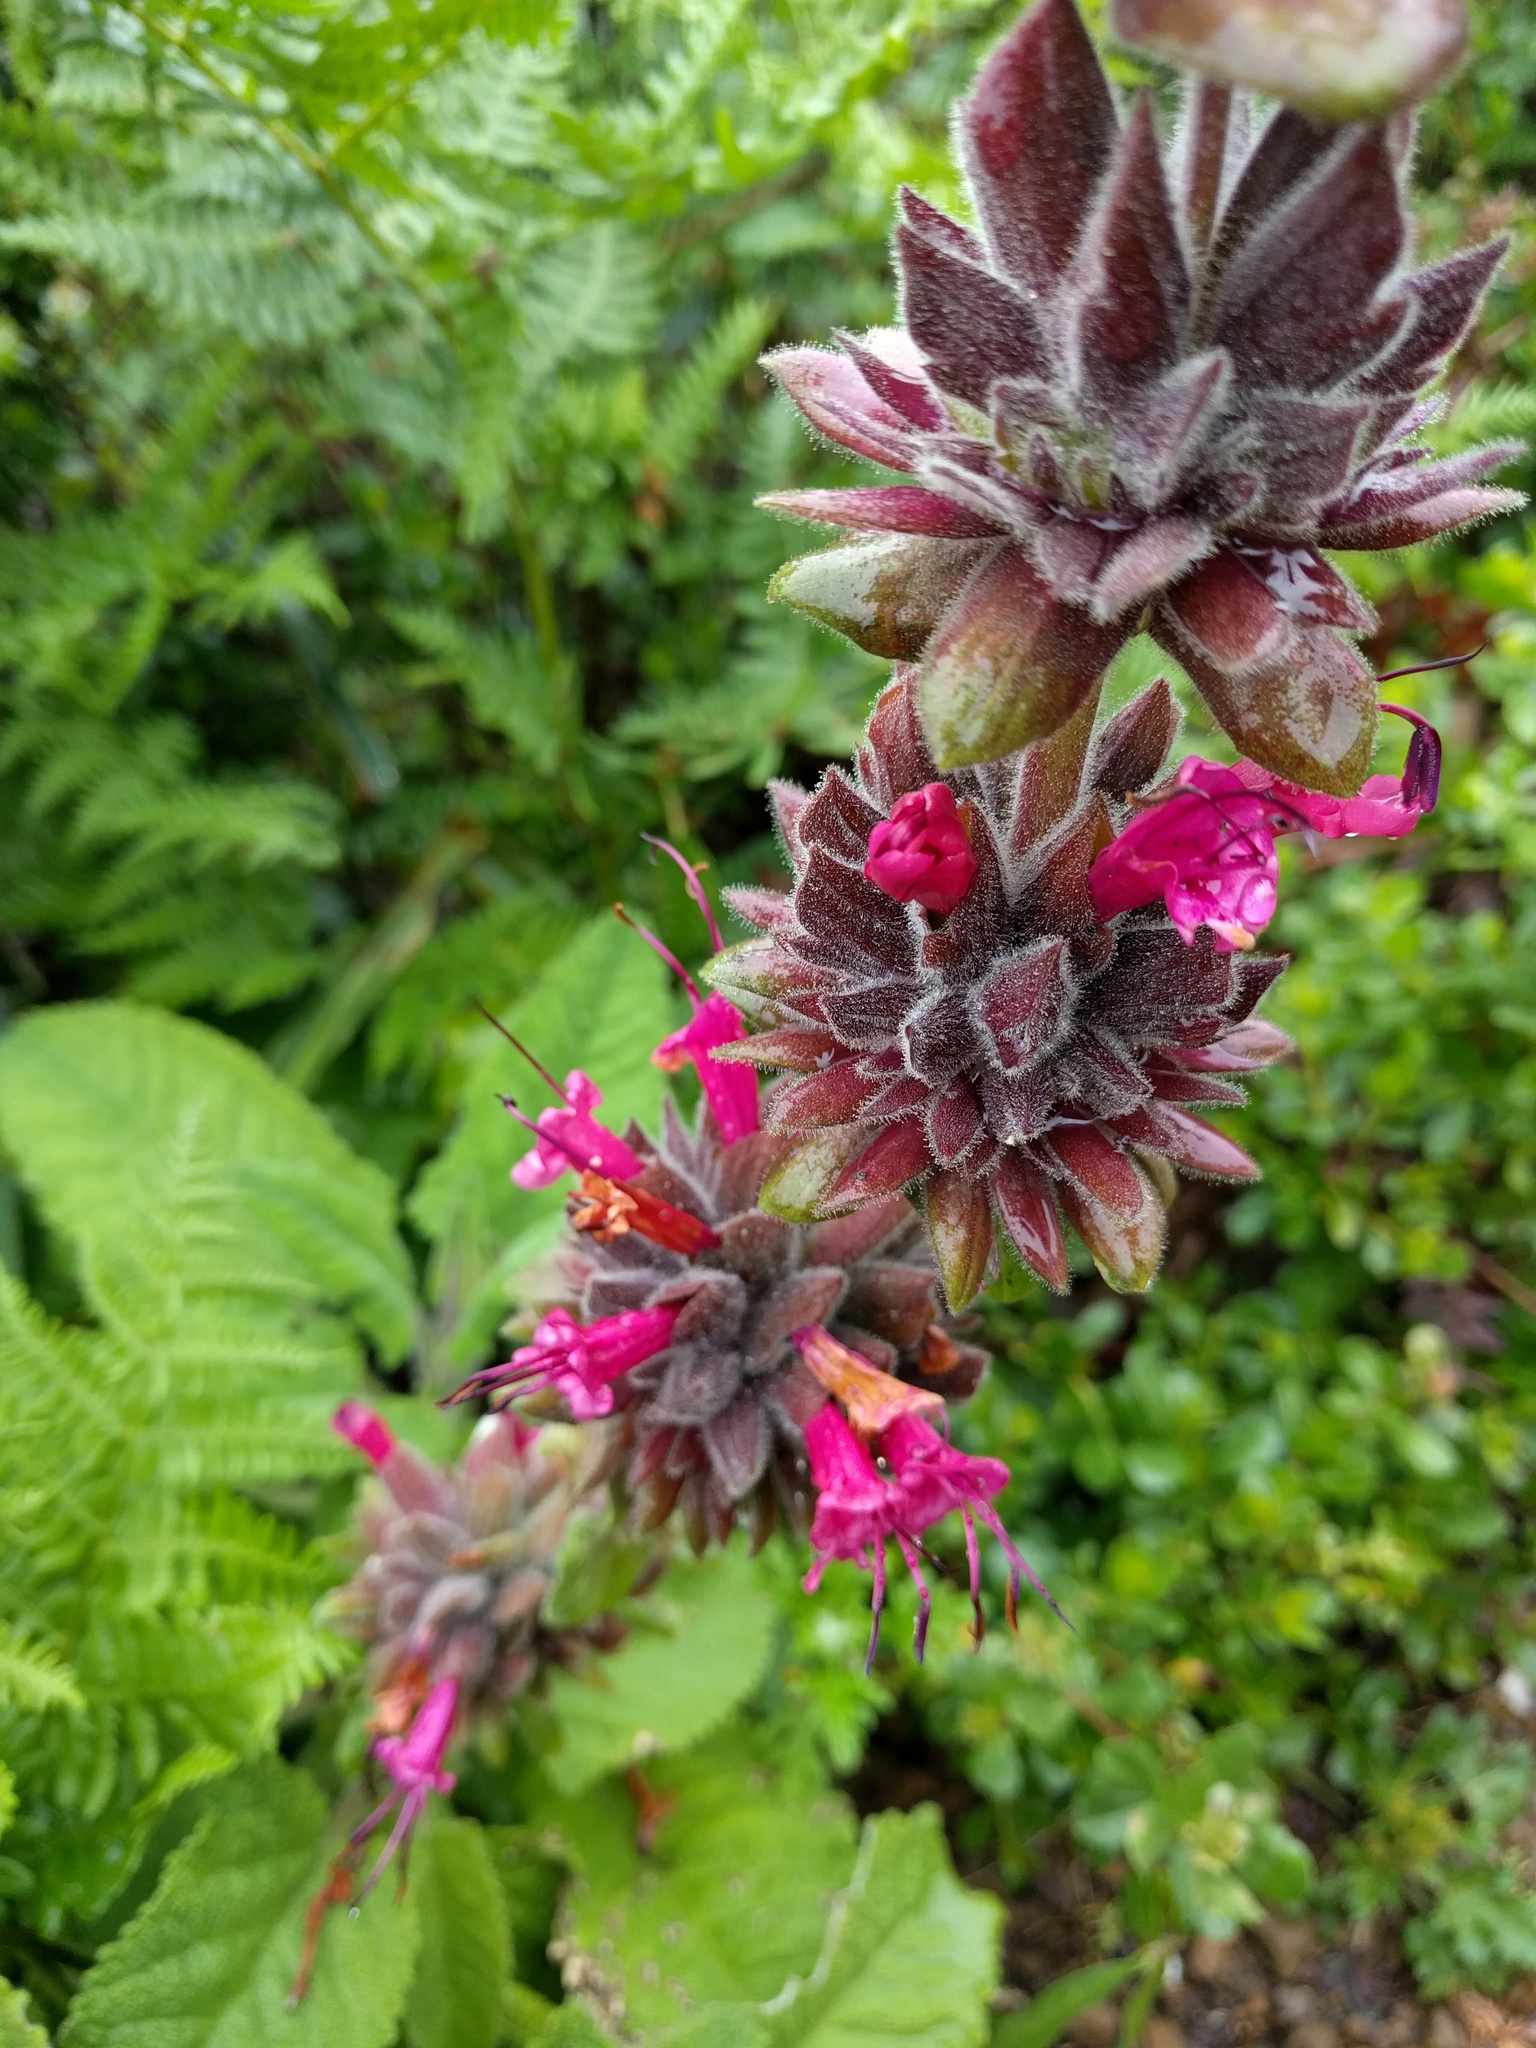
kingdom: Plantae
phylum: Tracheophyta
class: Magnoliopsida
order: Lamiales
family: Lamiaceae
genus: Salvia
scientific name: Salvia spathacea
